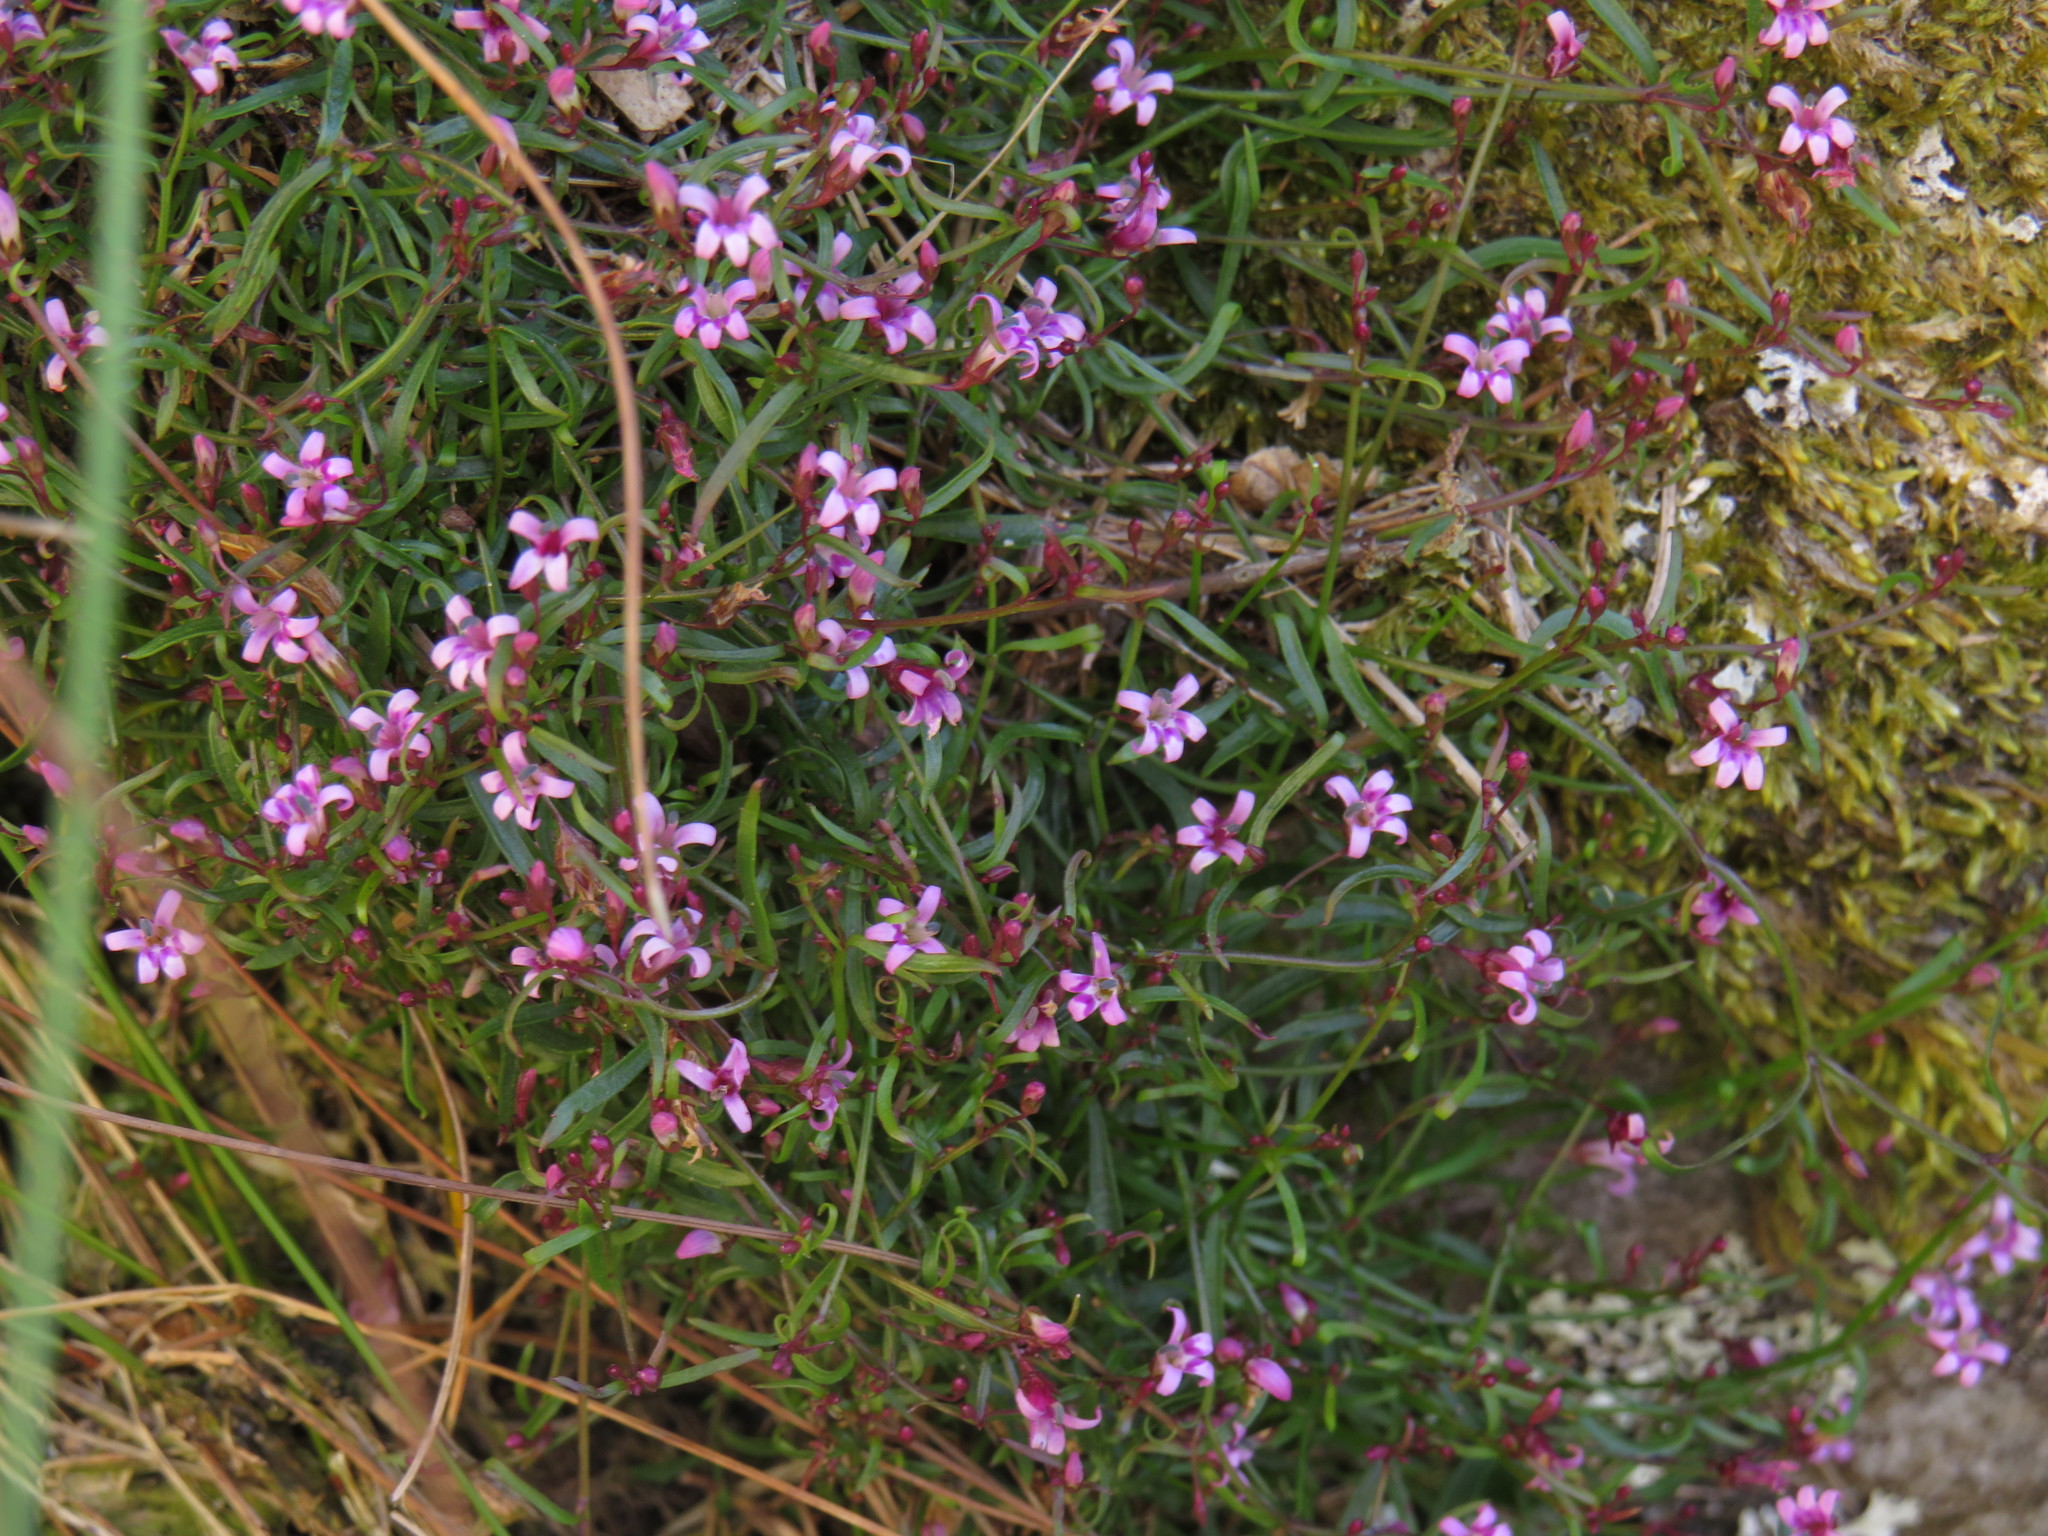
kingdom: Plantae
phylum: Tracheophyta
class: Magnoliopsida
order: Asterales
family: Campanulaceae
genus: Lobelia
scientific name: Lobelia eckloniana
